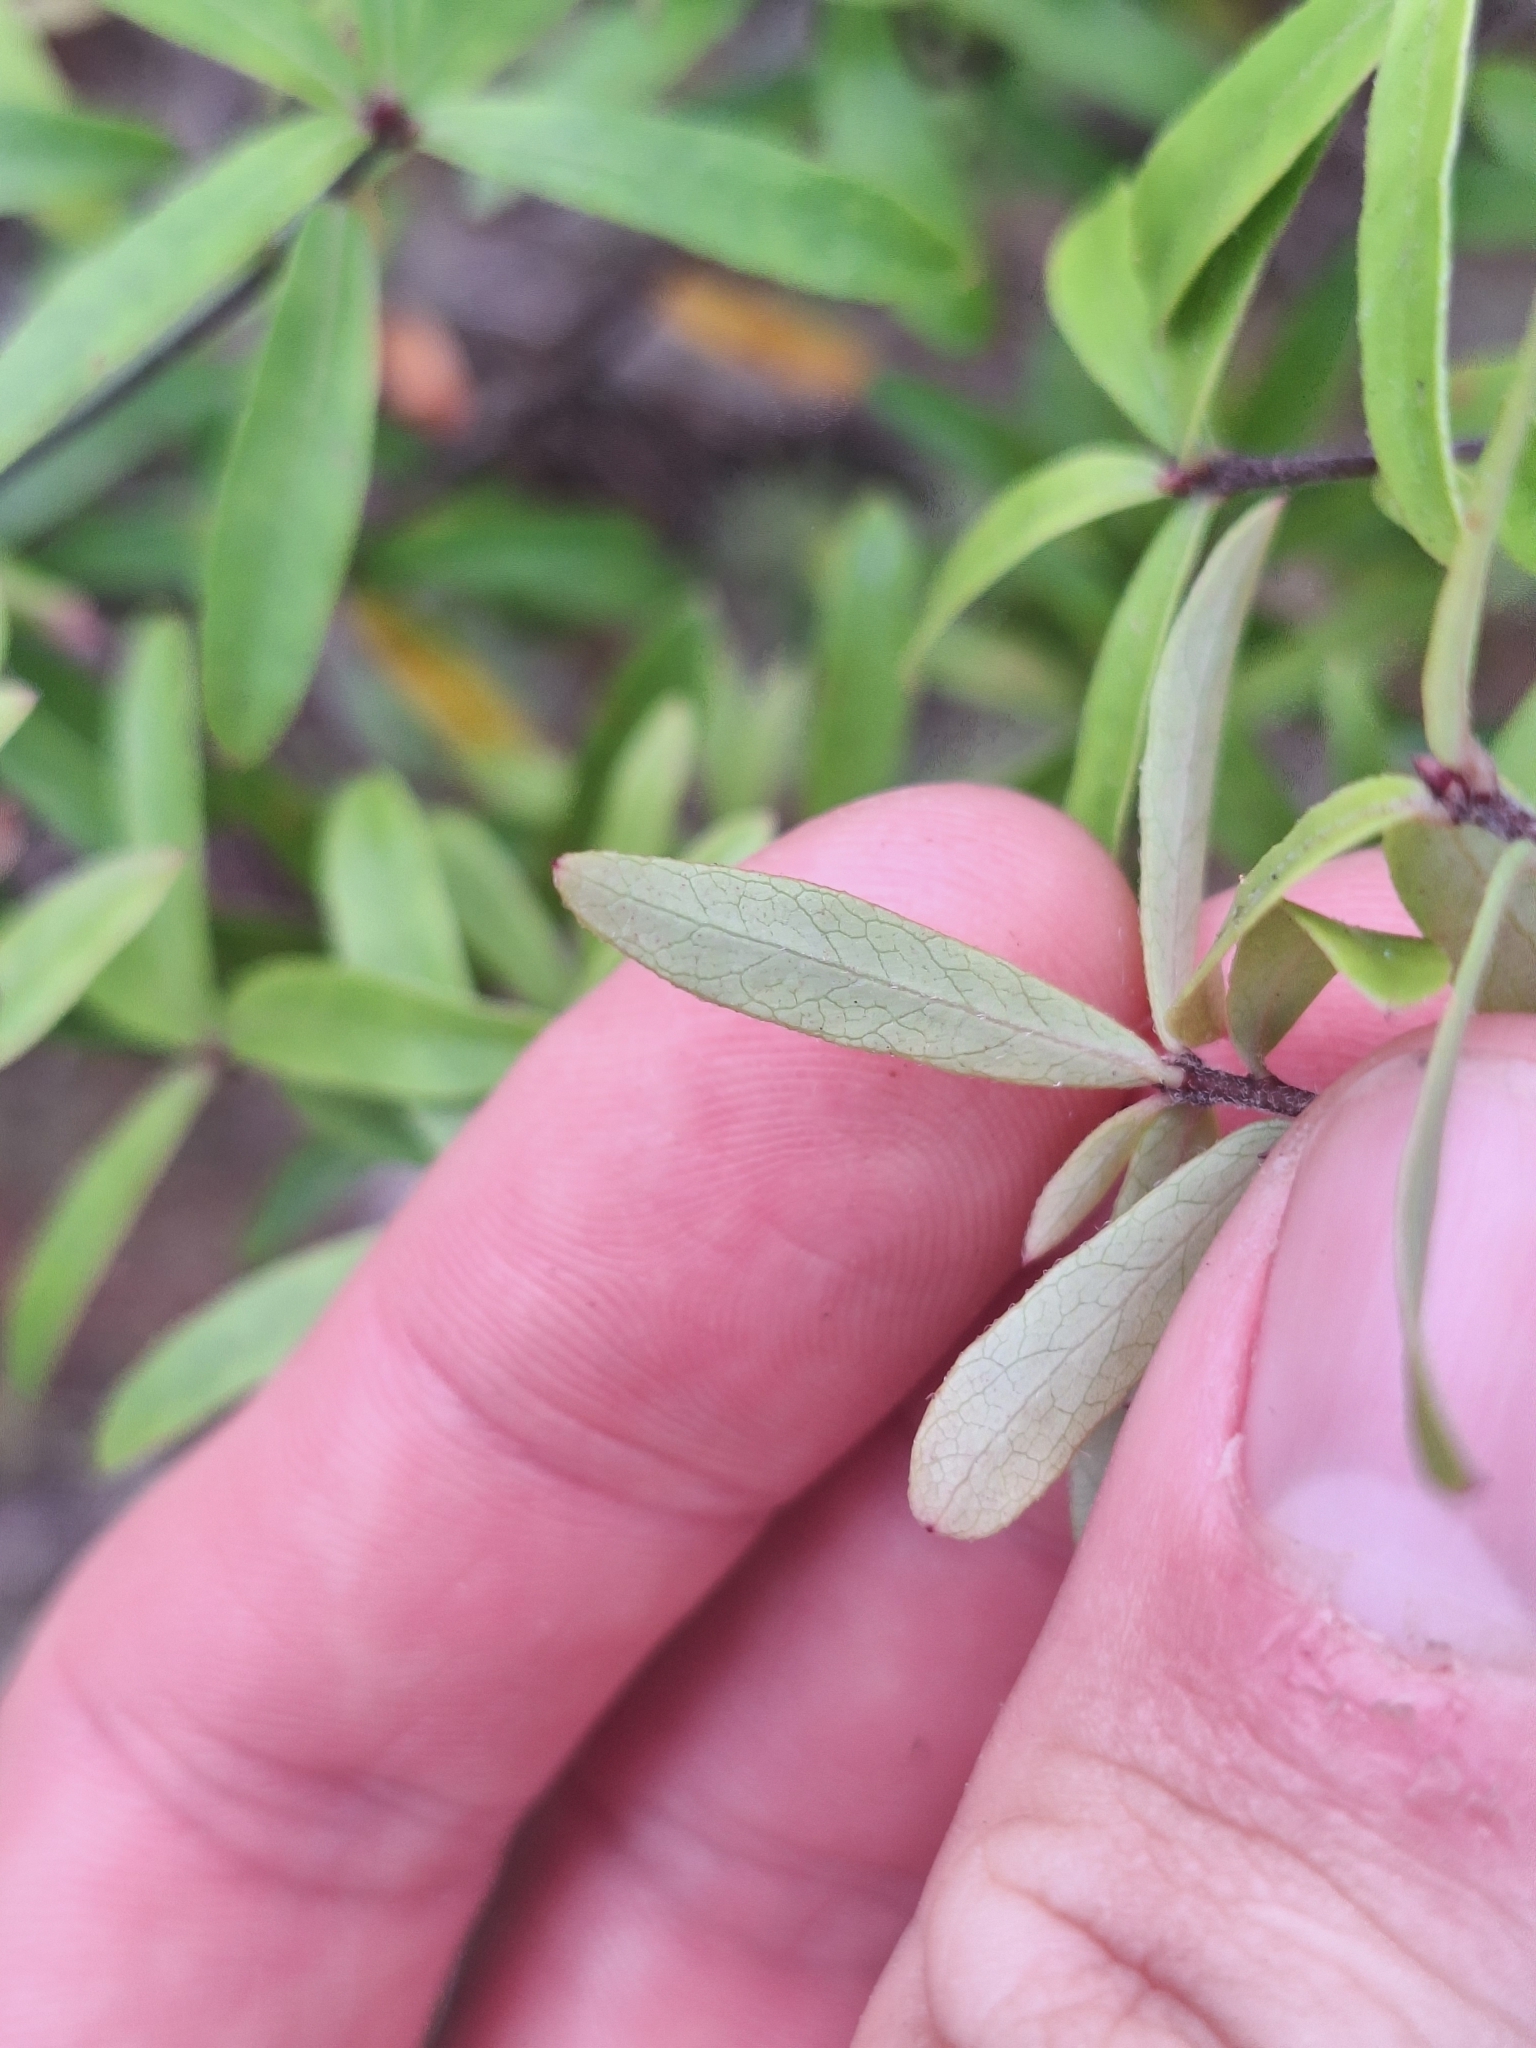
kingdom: Plantae
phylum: Tracheophyta
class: Magnoliopsida
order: Apiales
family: Pittosporaceae
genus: Pittosporum
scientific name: Pittosporum pimeleoides
